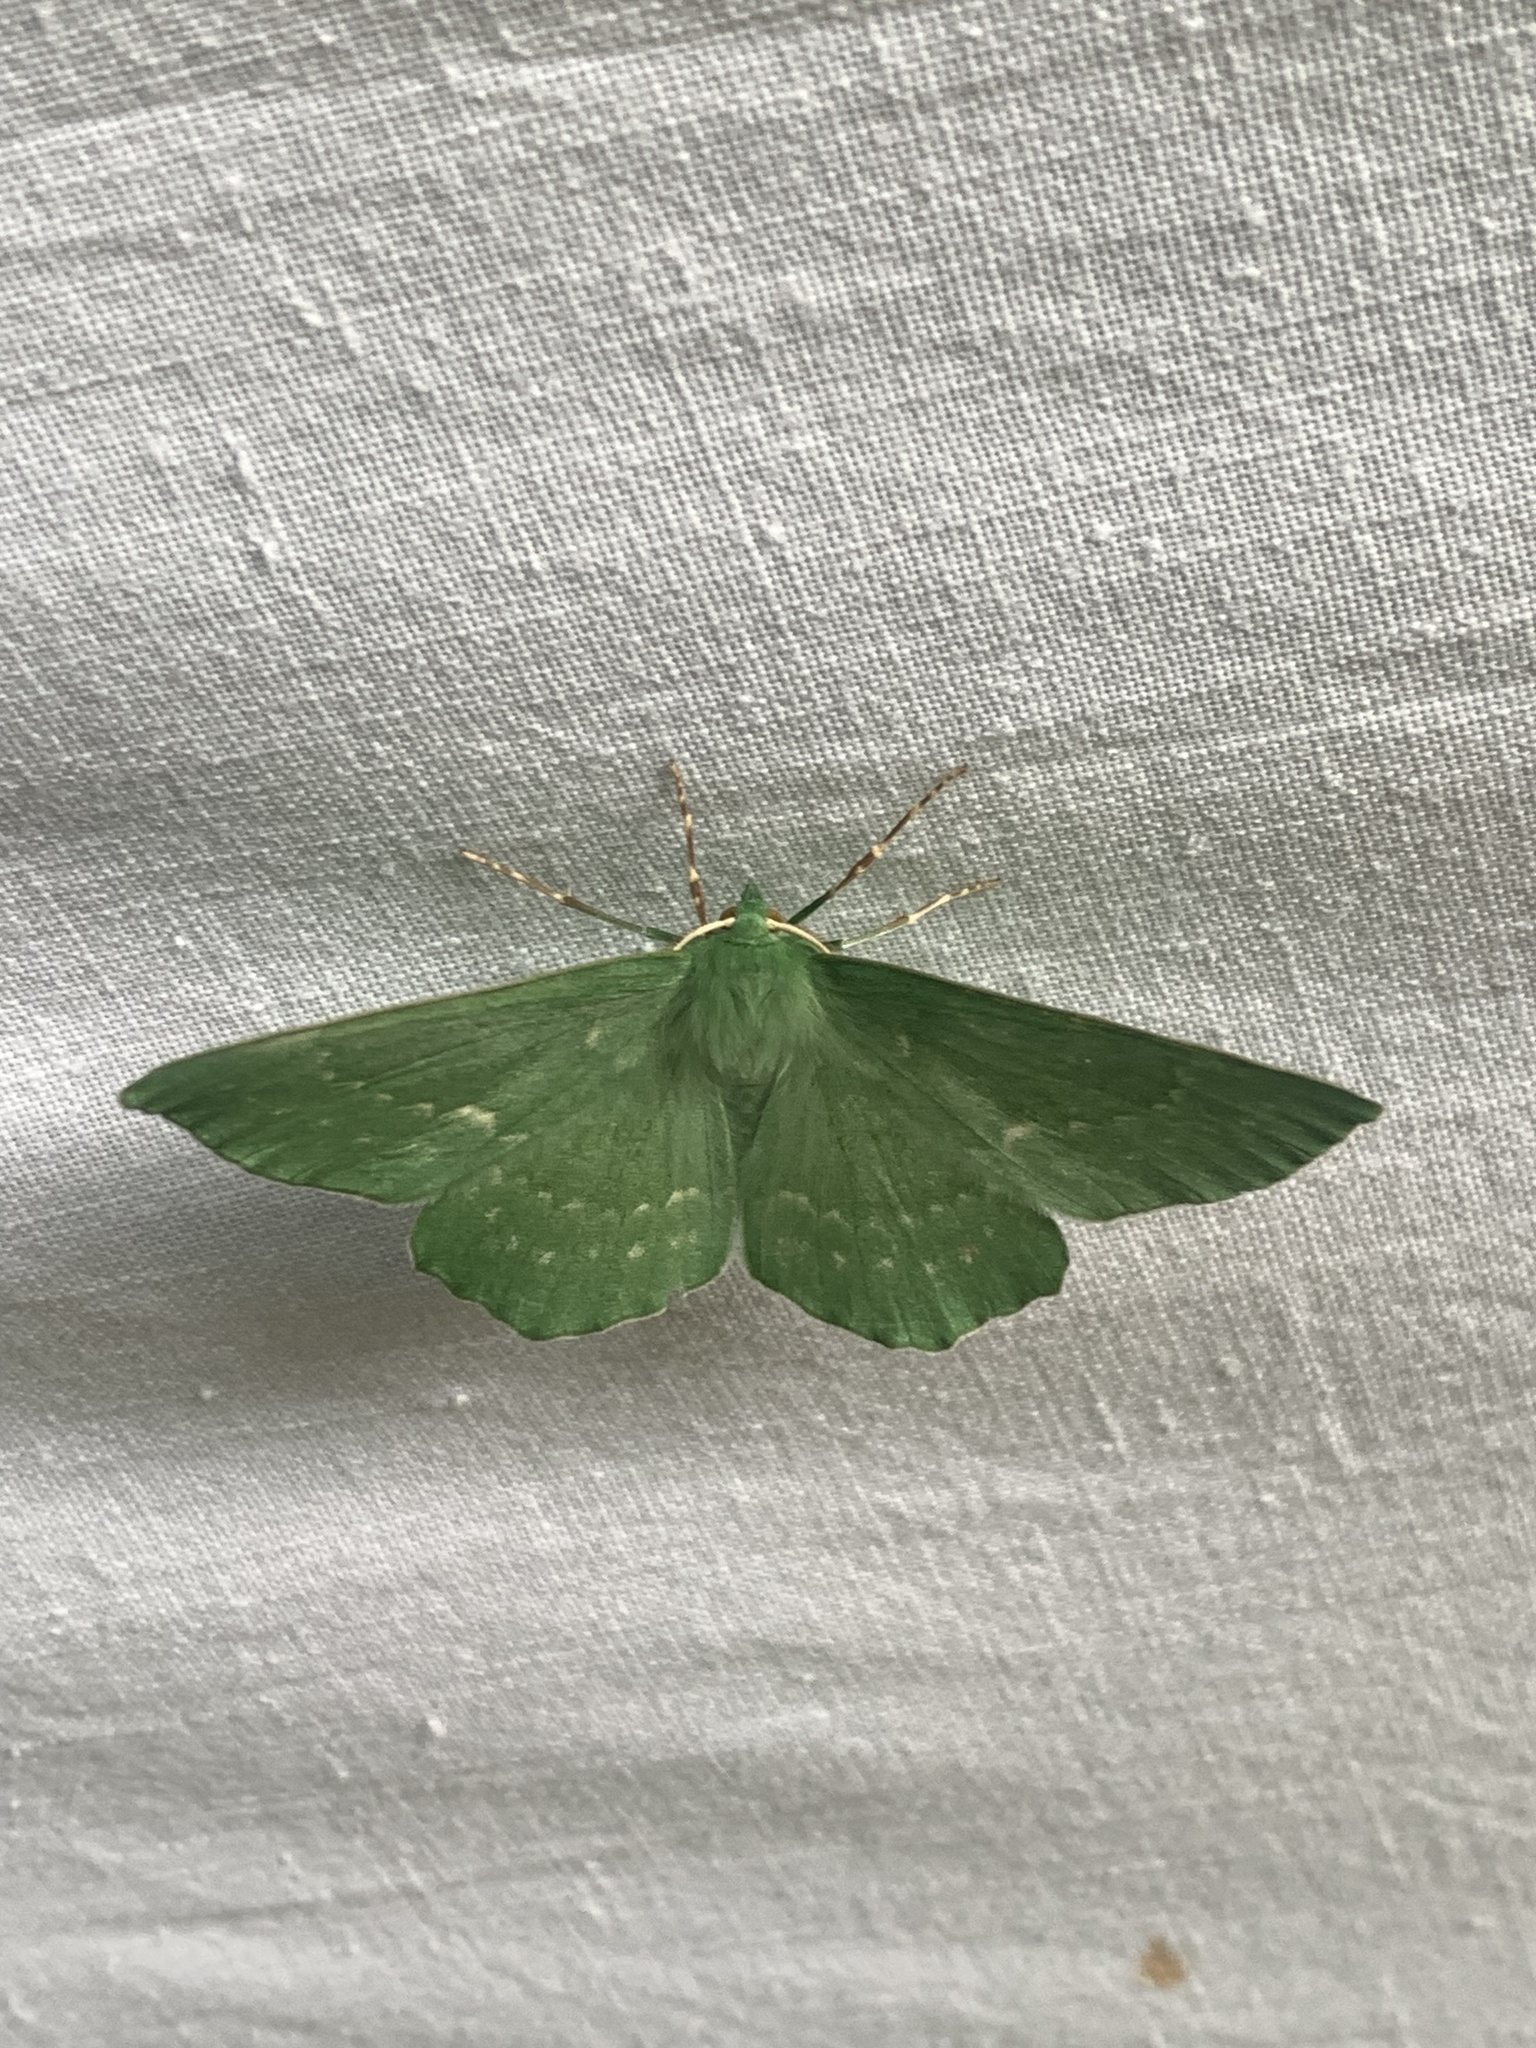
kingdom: Animalia
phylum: Arthropoda
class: Insecta
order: Lepidoptera
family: Geometridae
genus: Geometra
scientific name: Geometra papilionaria
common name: Large emerald
